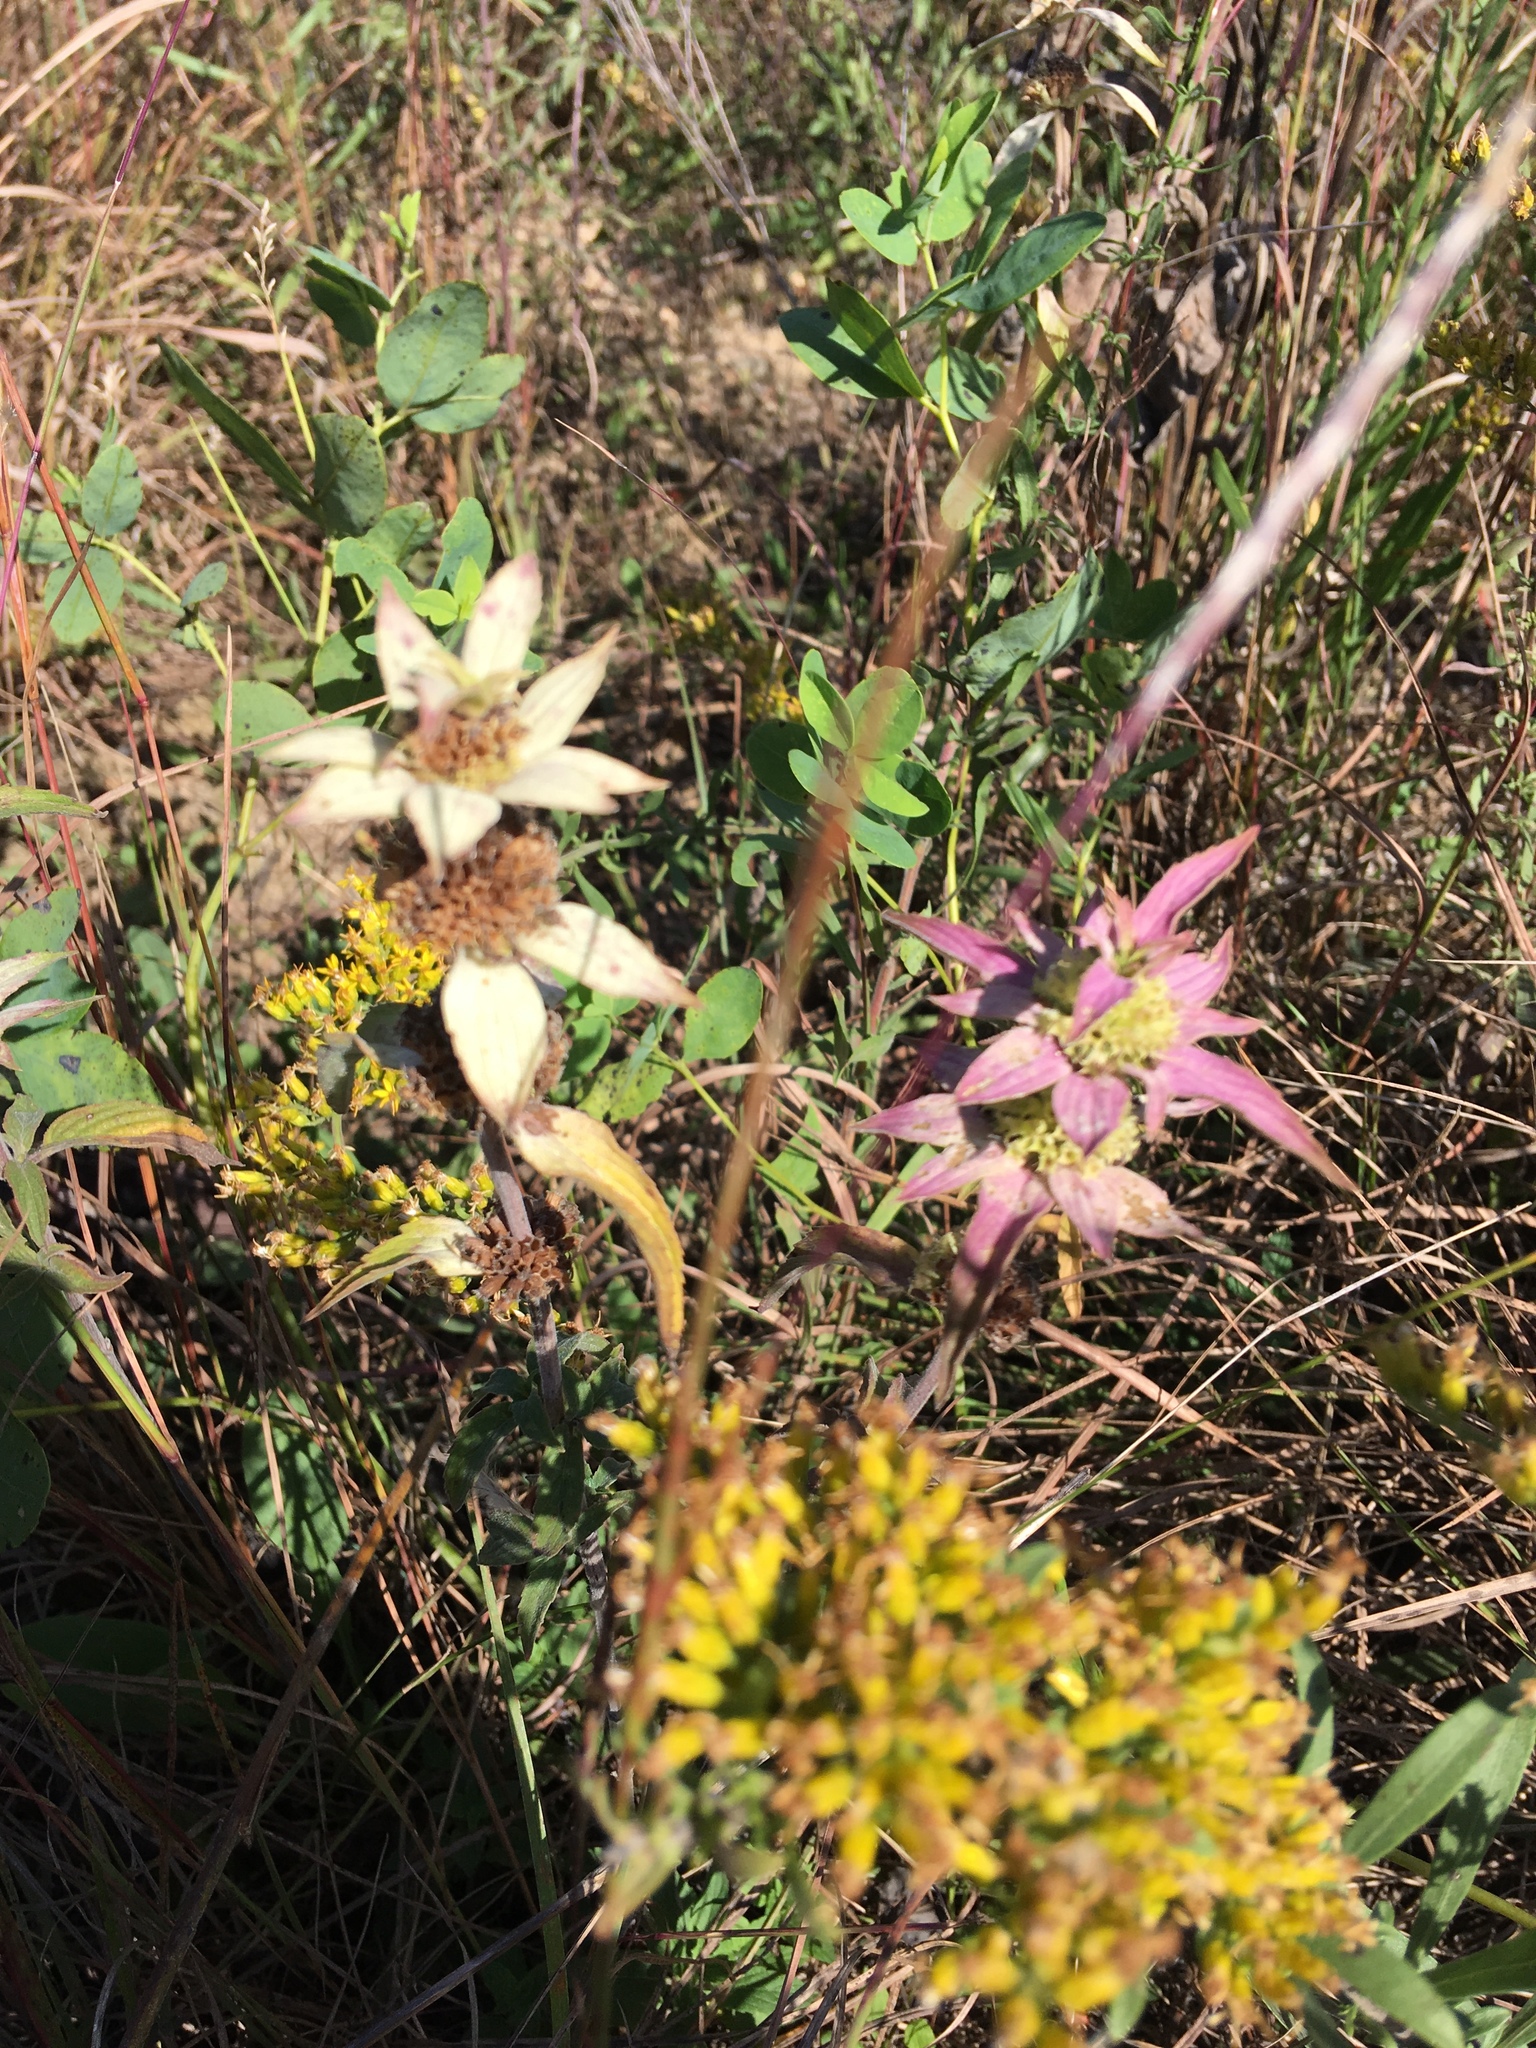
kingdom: Plantae
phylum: Tracheophyta
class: Magnoliopsida
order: Lamiales
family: Lamiaceae
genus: Monarda
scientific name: Monarda punctata
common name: Dotted monarda
